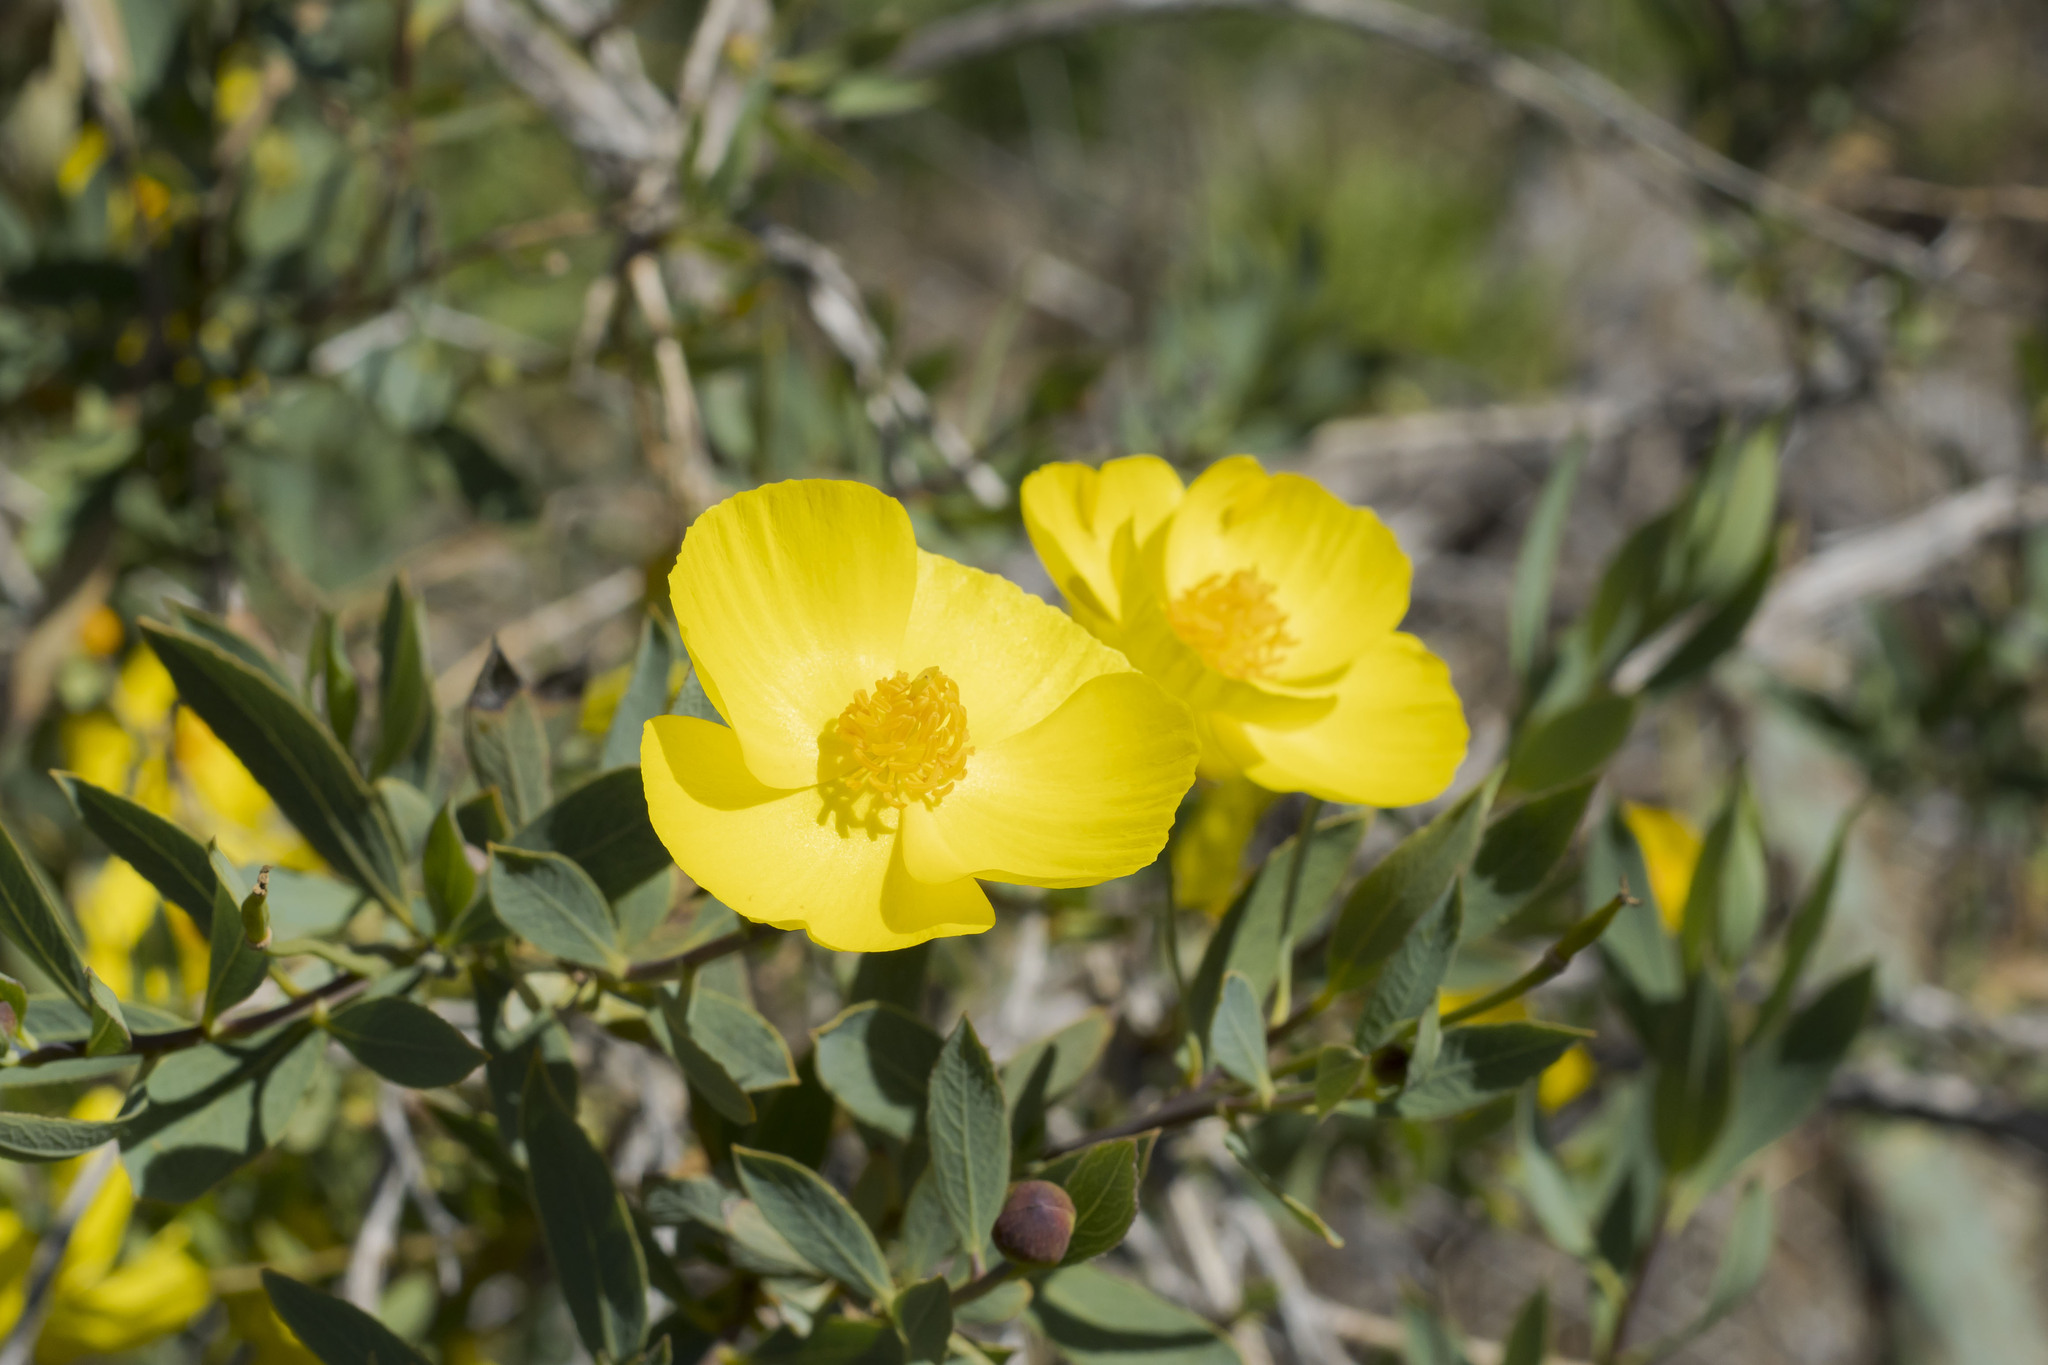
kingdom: Plantae
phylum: Tracheophyta
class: Magnoliopsida
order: Ranunculales
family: Papaveraceae
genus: Dendromecon
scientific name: Dendromecon rigida
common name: Tree poppy
